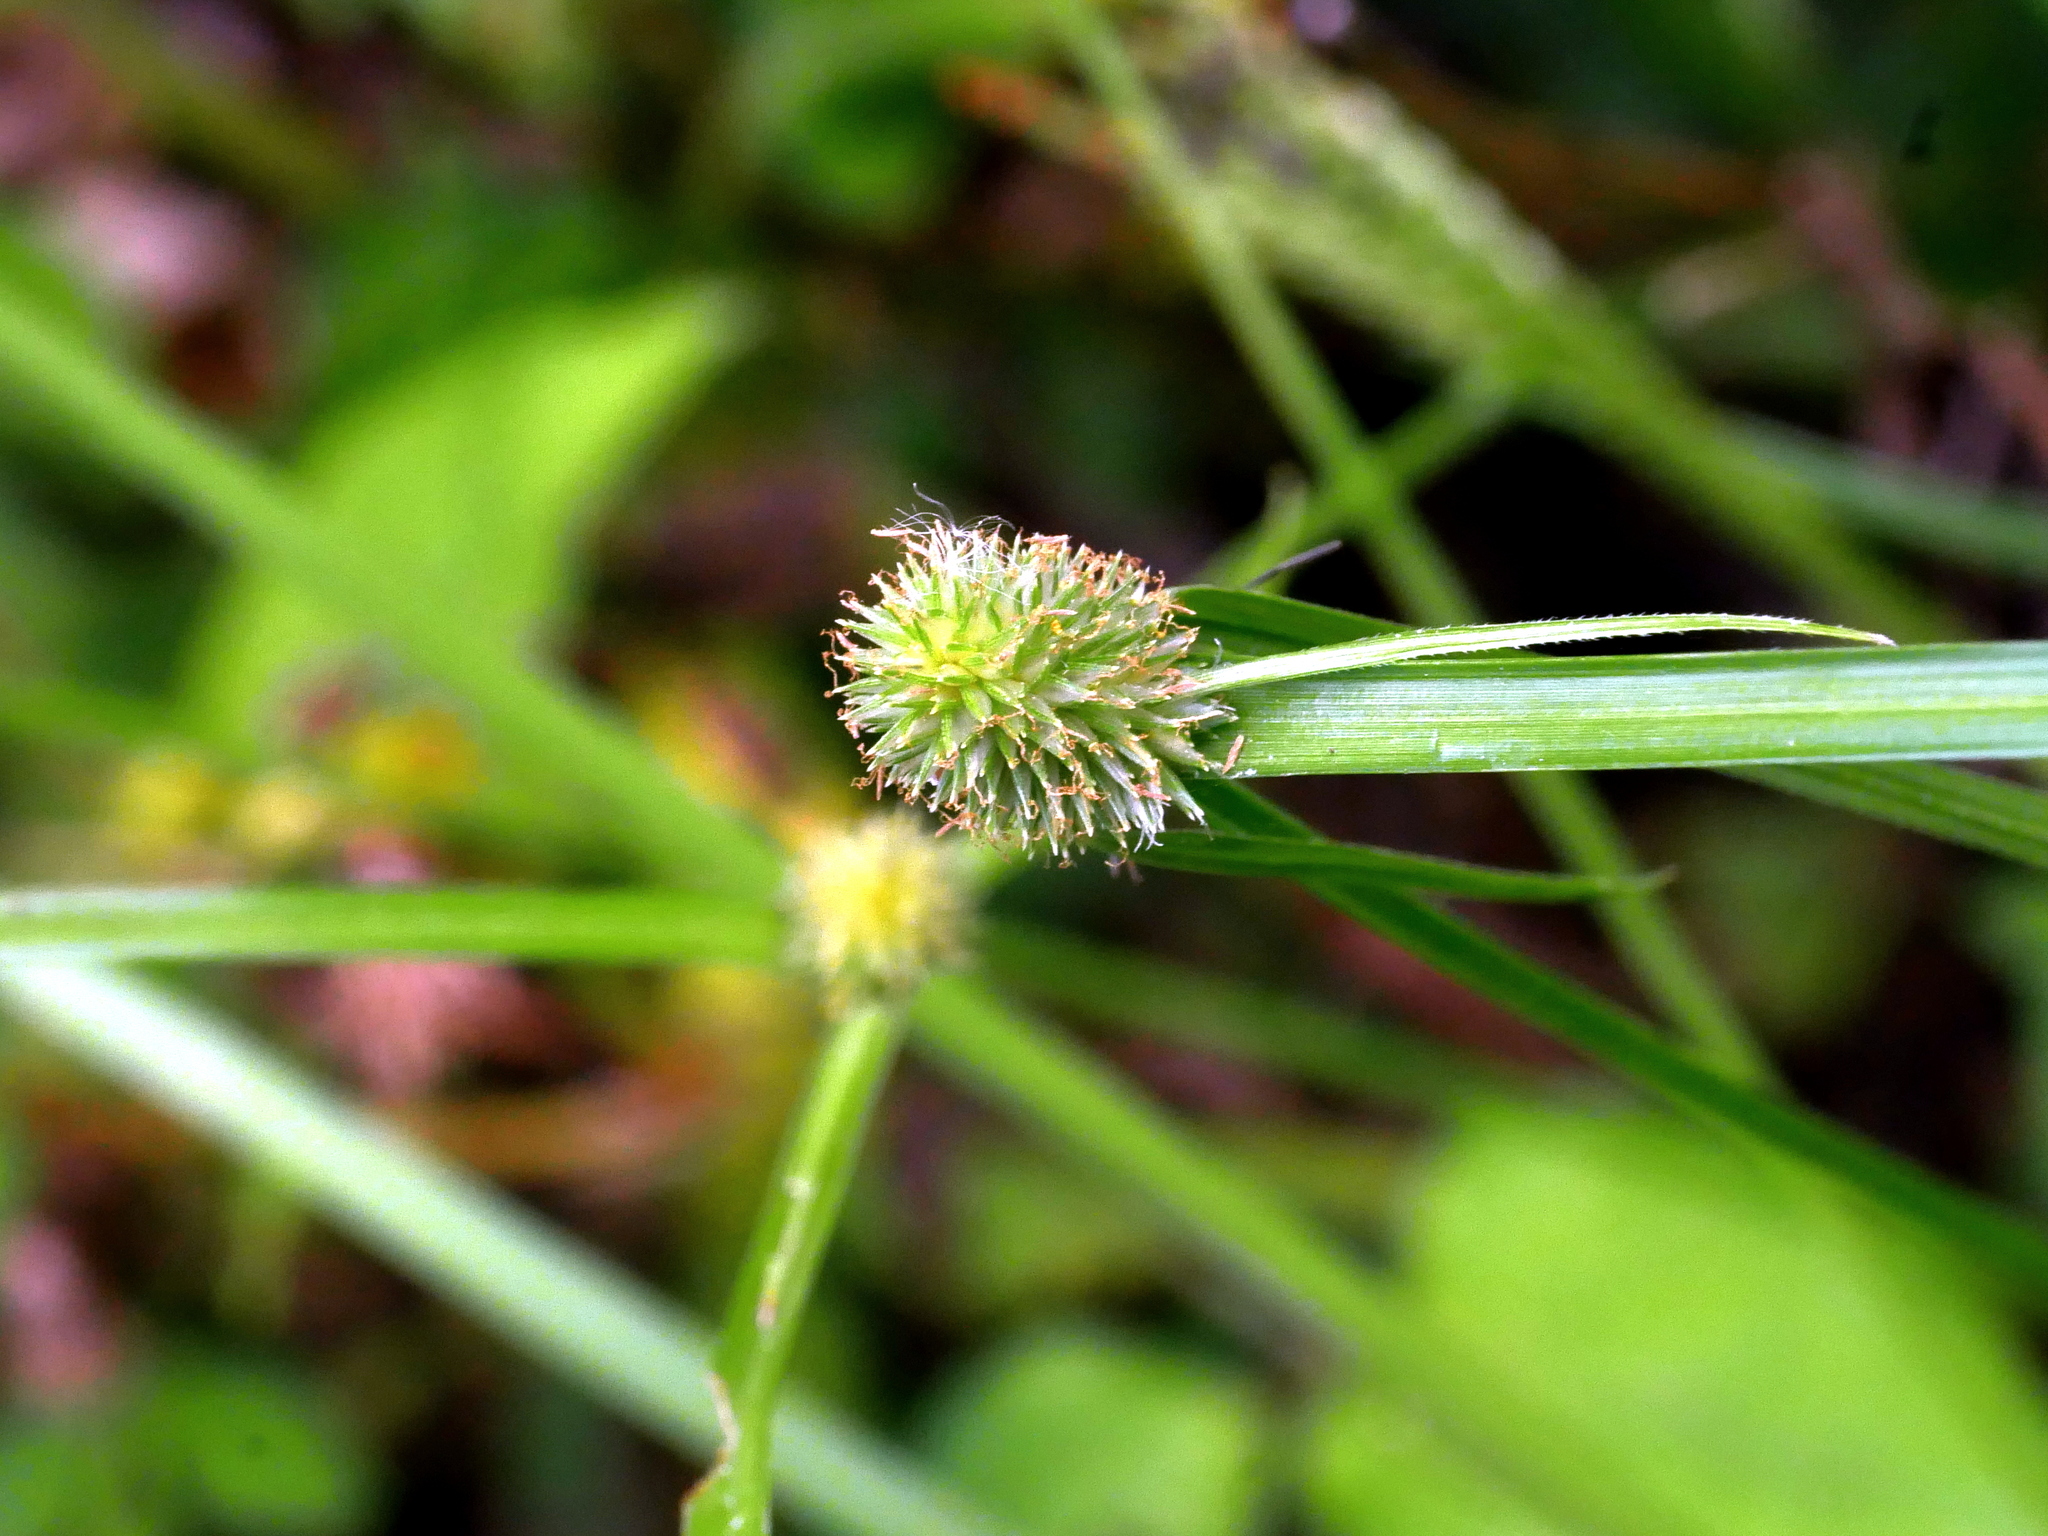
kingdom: Plantae
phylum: Tracheophyta
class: Liliopsida
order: Poales
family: Cyperaceae
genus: Cyperus
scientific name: Cyperus brevifolius
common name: Globe kyllinga
